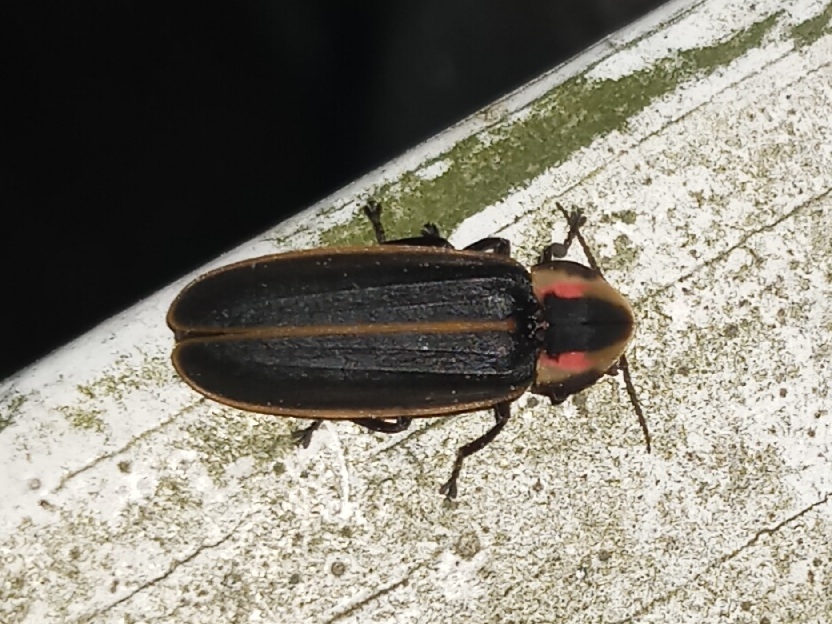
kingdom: Animalia
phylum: Arthropoda
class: Insecta
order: Coleoptera
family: Lampyridae
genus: Pyractomena
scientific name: Pyractomena borealis
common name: Northern firefly
